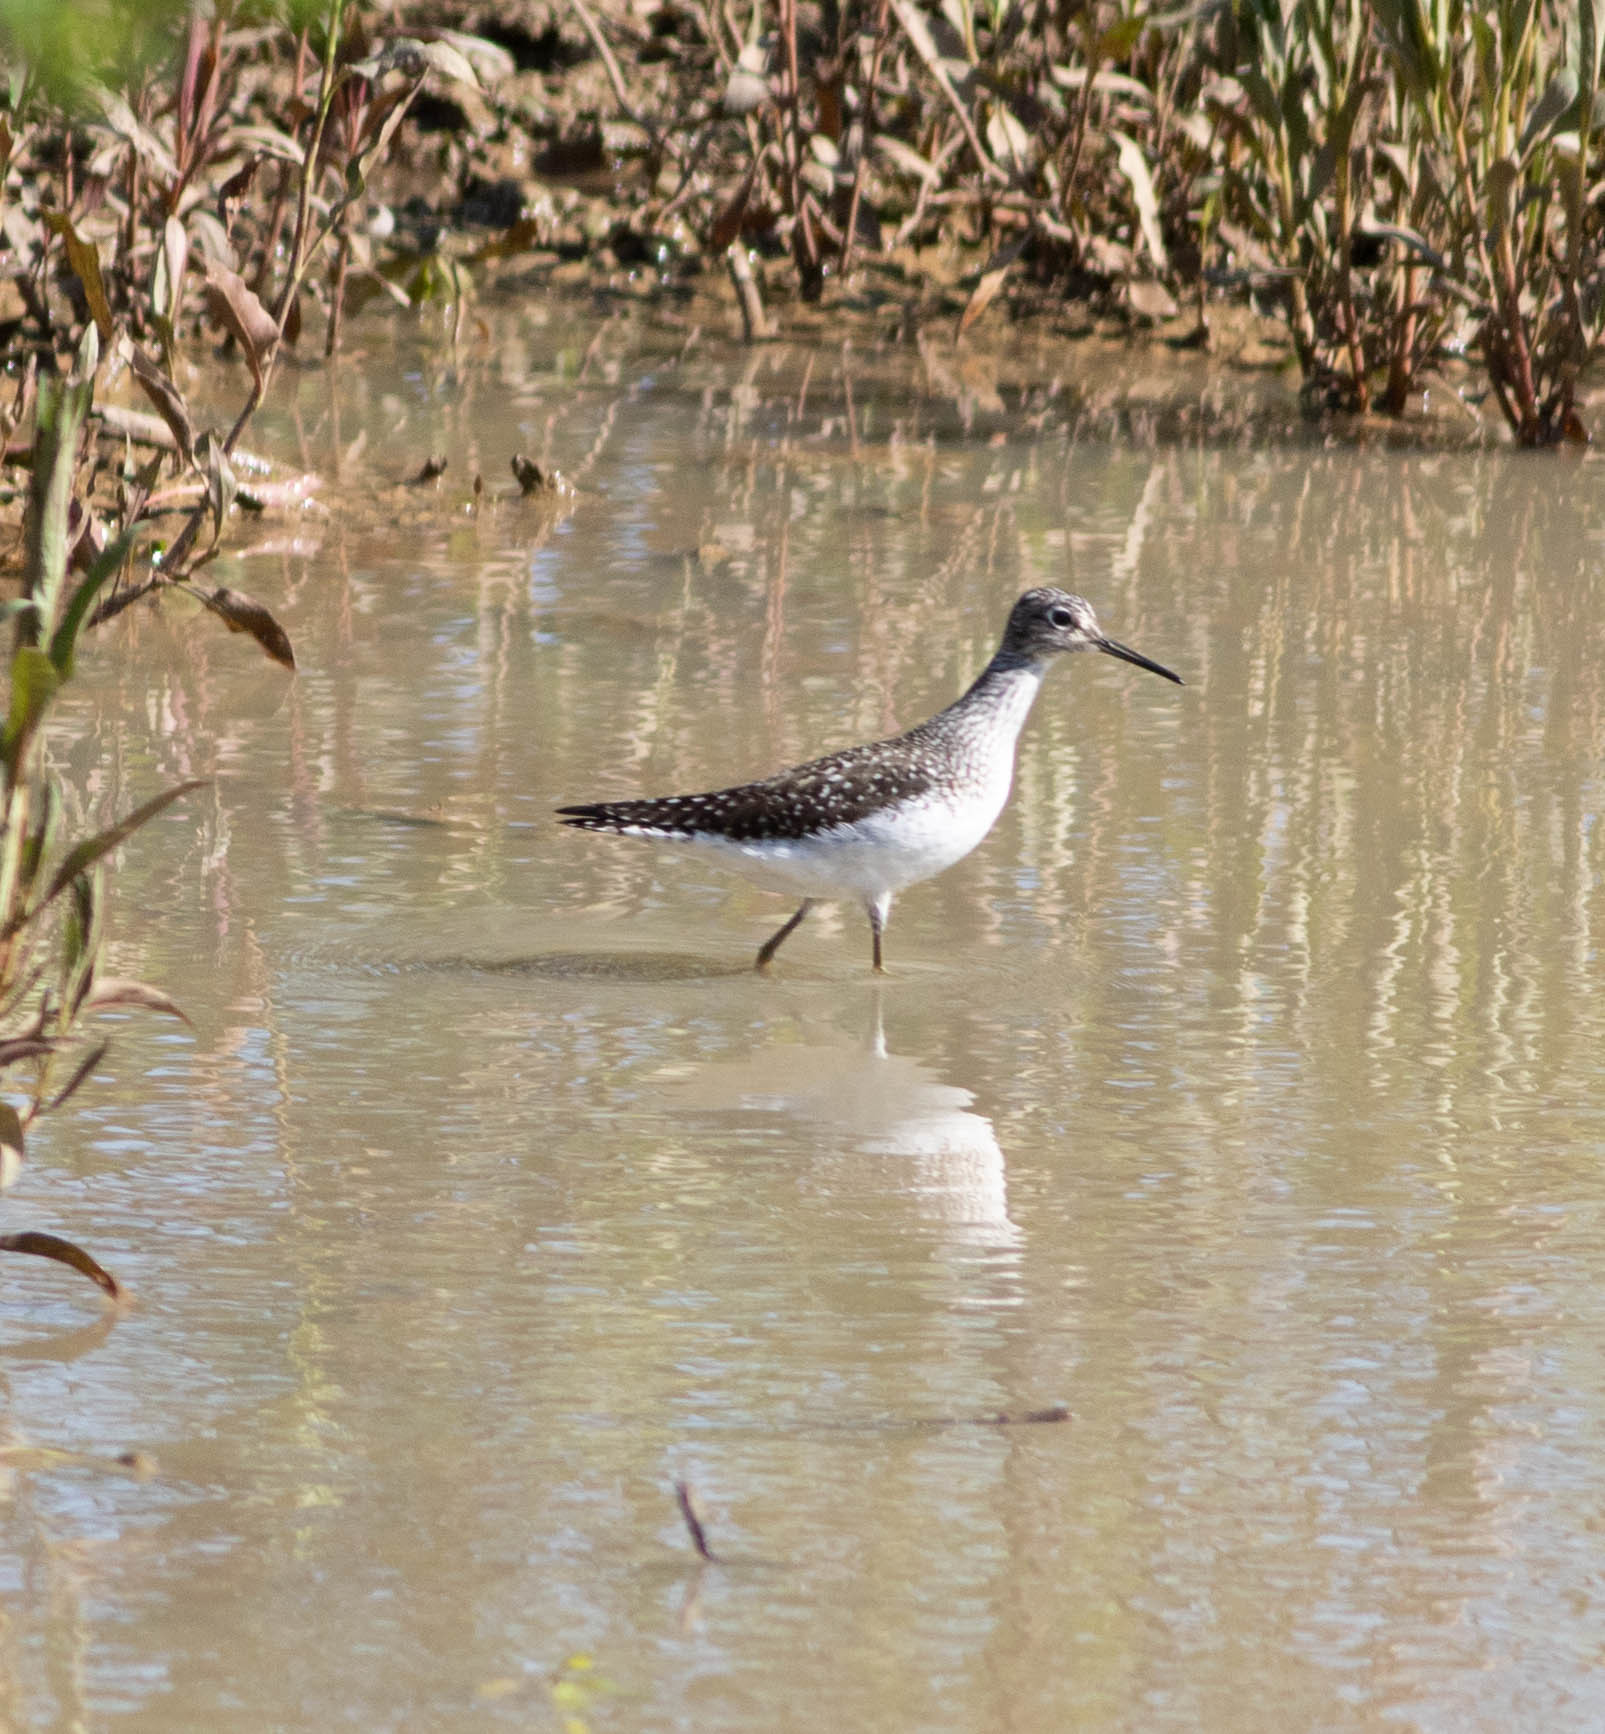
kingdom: Animalia
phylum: Chordata
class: Aves
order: Charadriiformes
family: Scolopacidae
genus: Tringa
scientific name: Tringa solitaria
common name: Solitary sandpiper
